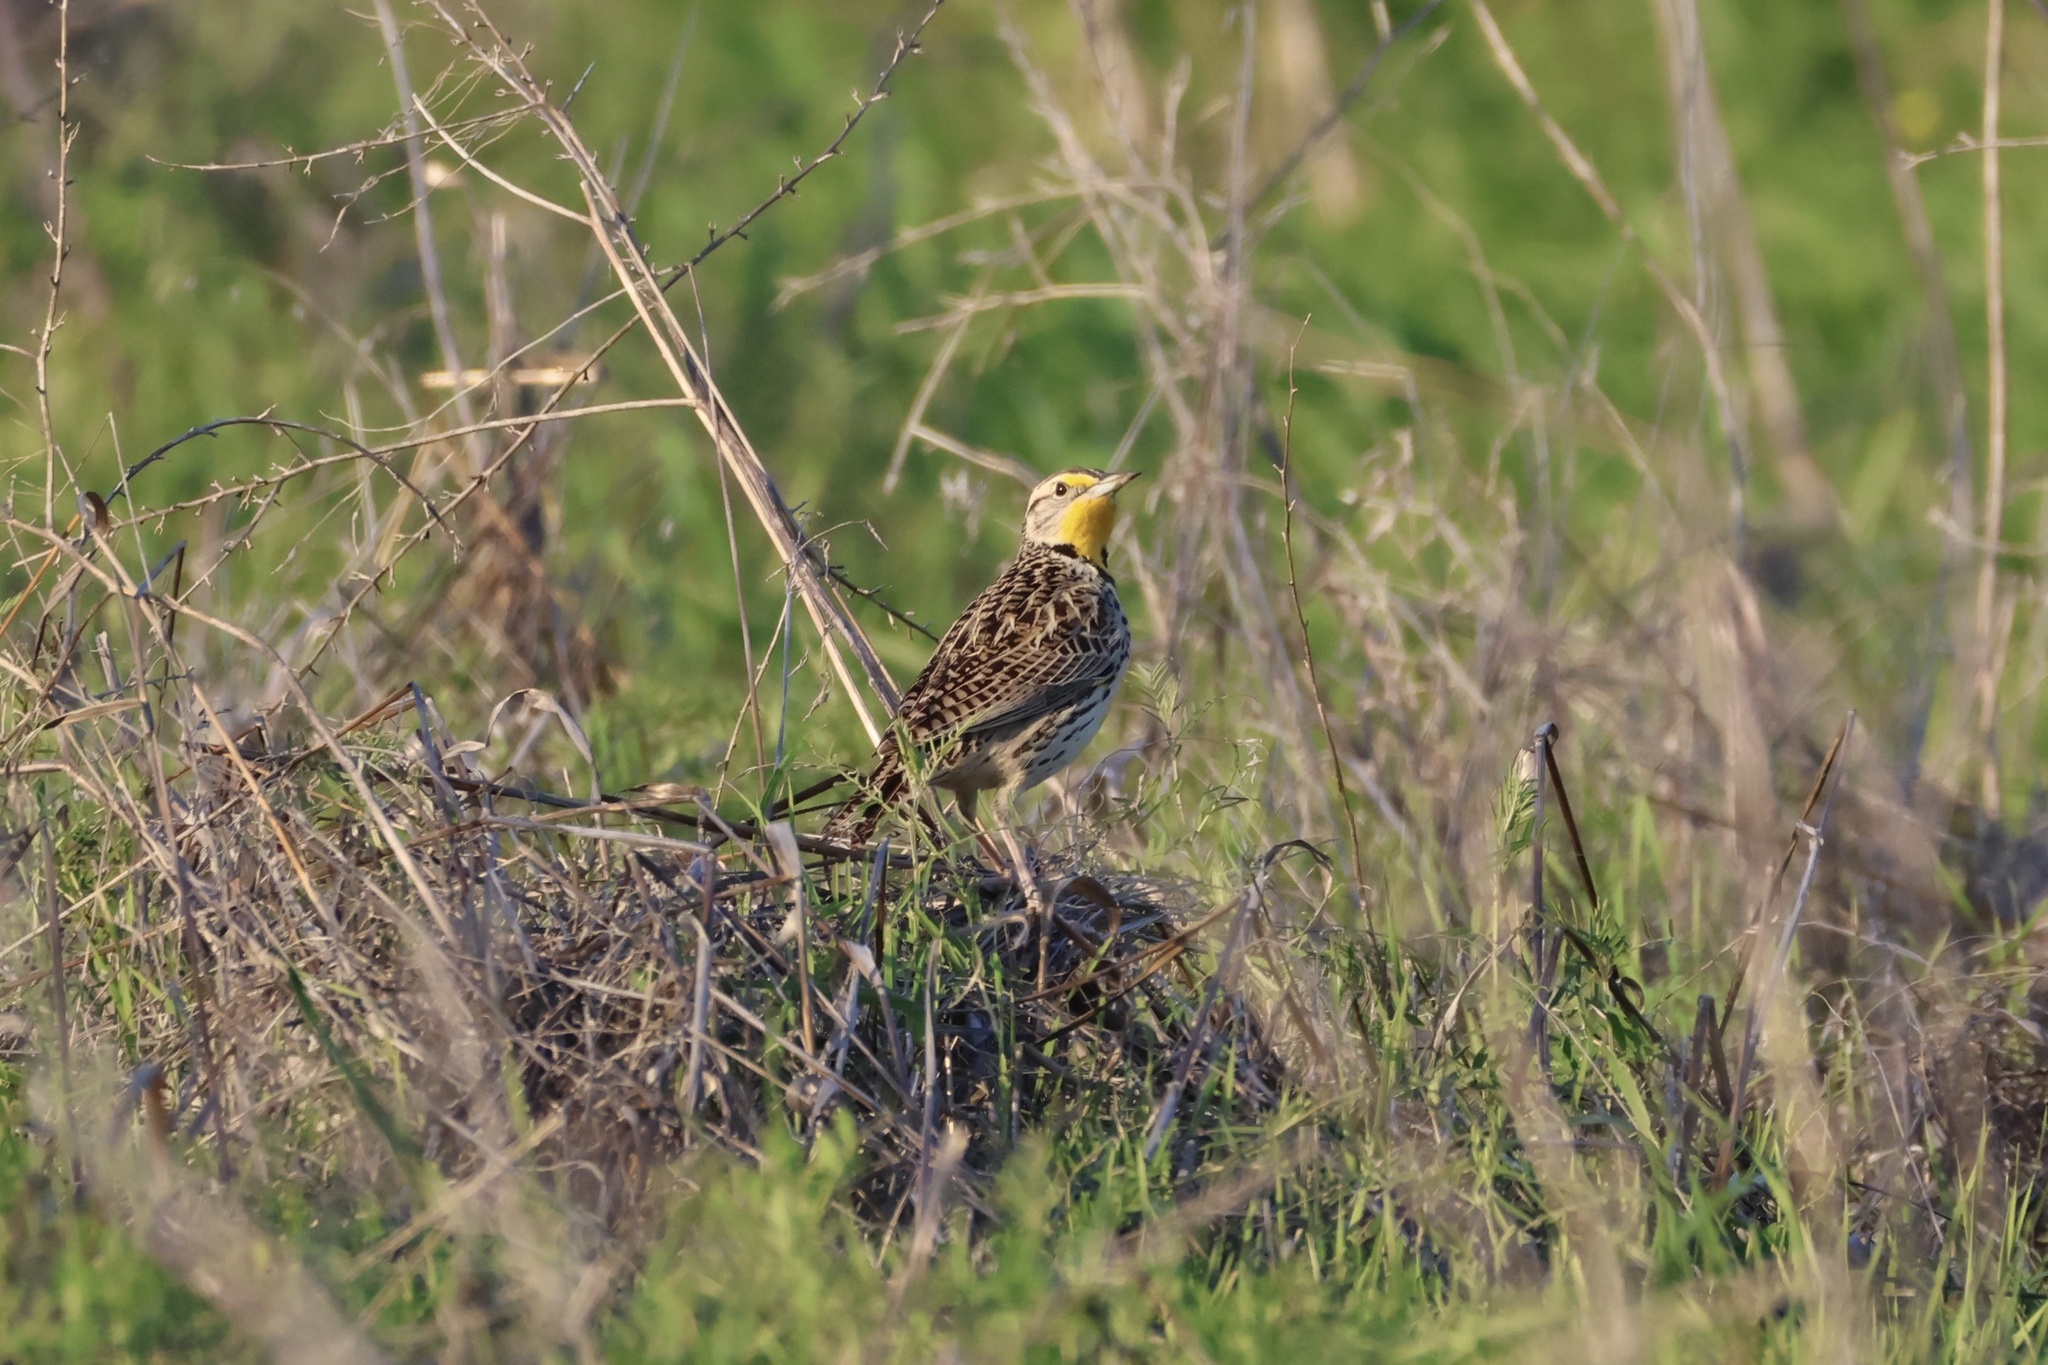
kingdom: Animalia
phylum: Chordata
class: Aves
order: Passeriformes
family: Icteridae
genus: Sturnella
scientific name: Sturnella neglecta
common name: Western meadowlark
